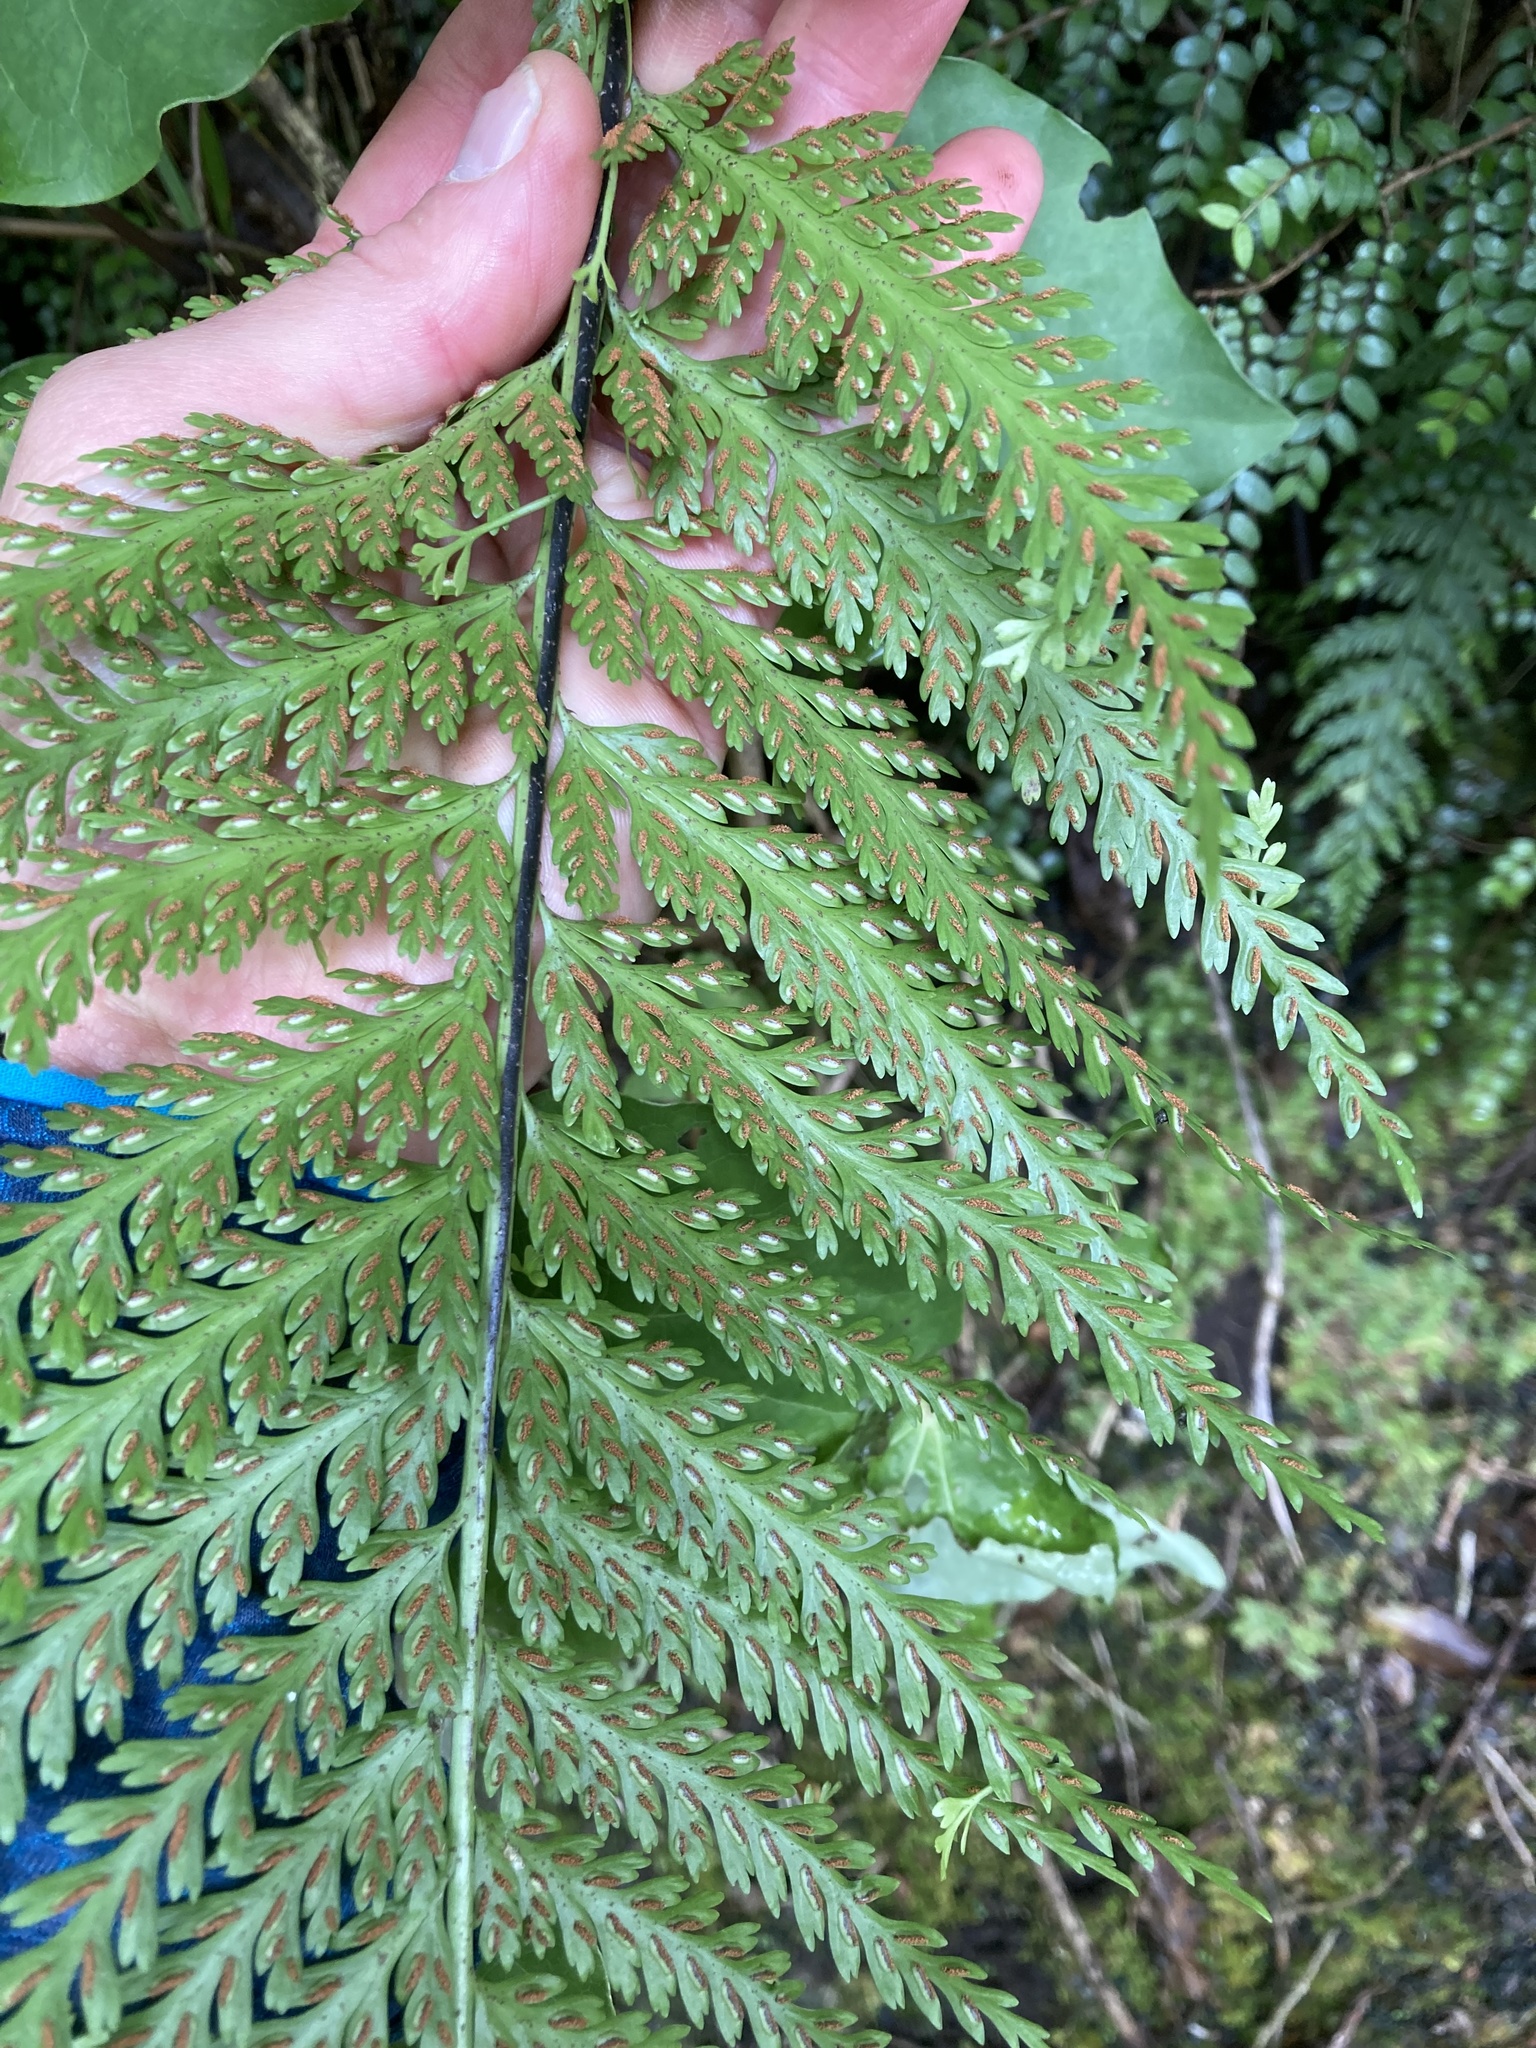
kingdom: Plantae
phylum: Tracheophyta
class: Polypodiopsida
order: Polypodiales
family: Aspleniaceae
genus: Asplenium
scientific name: Asplenium bulbiferum
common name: Mother fern
